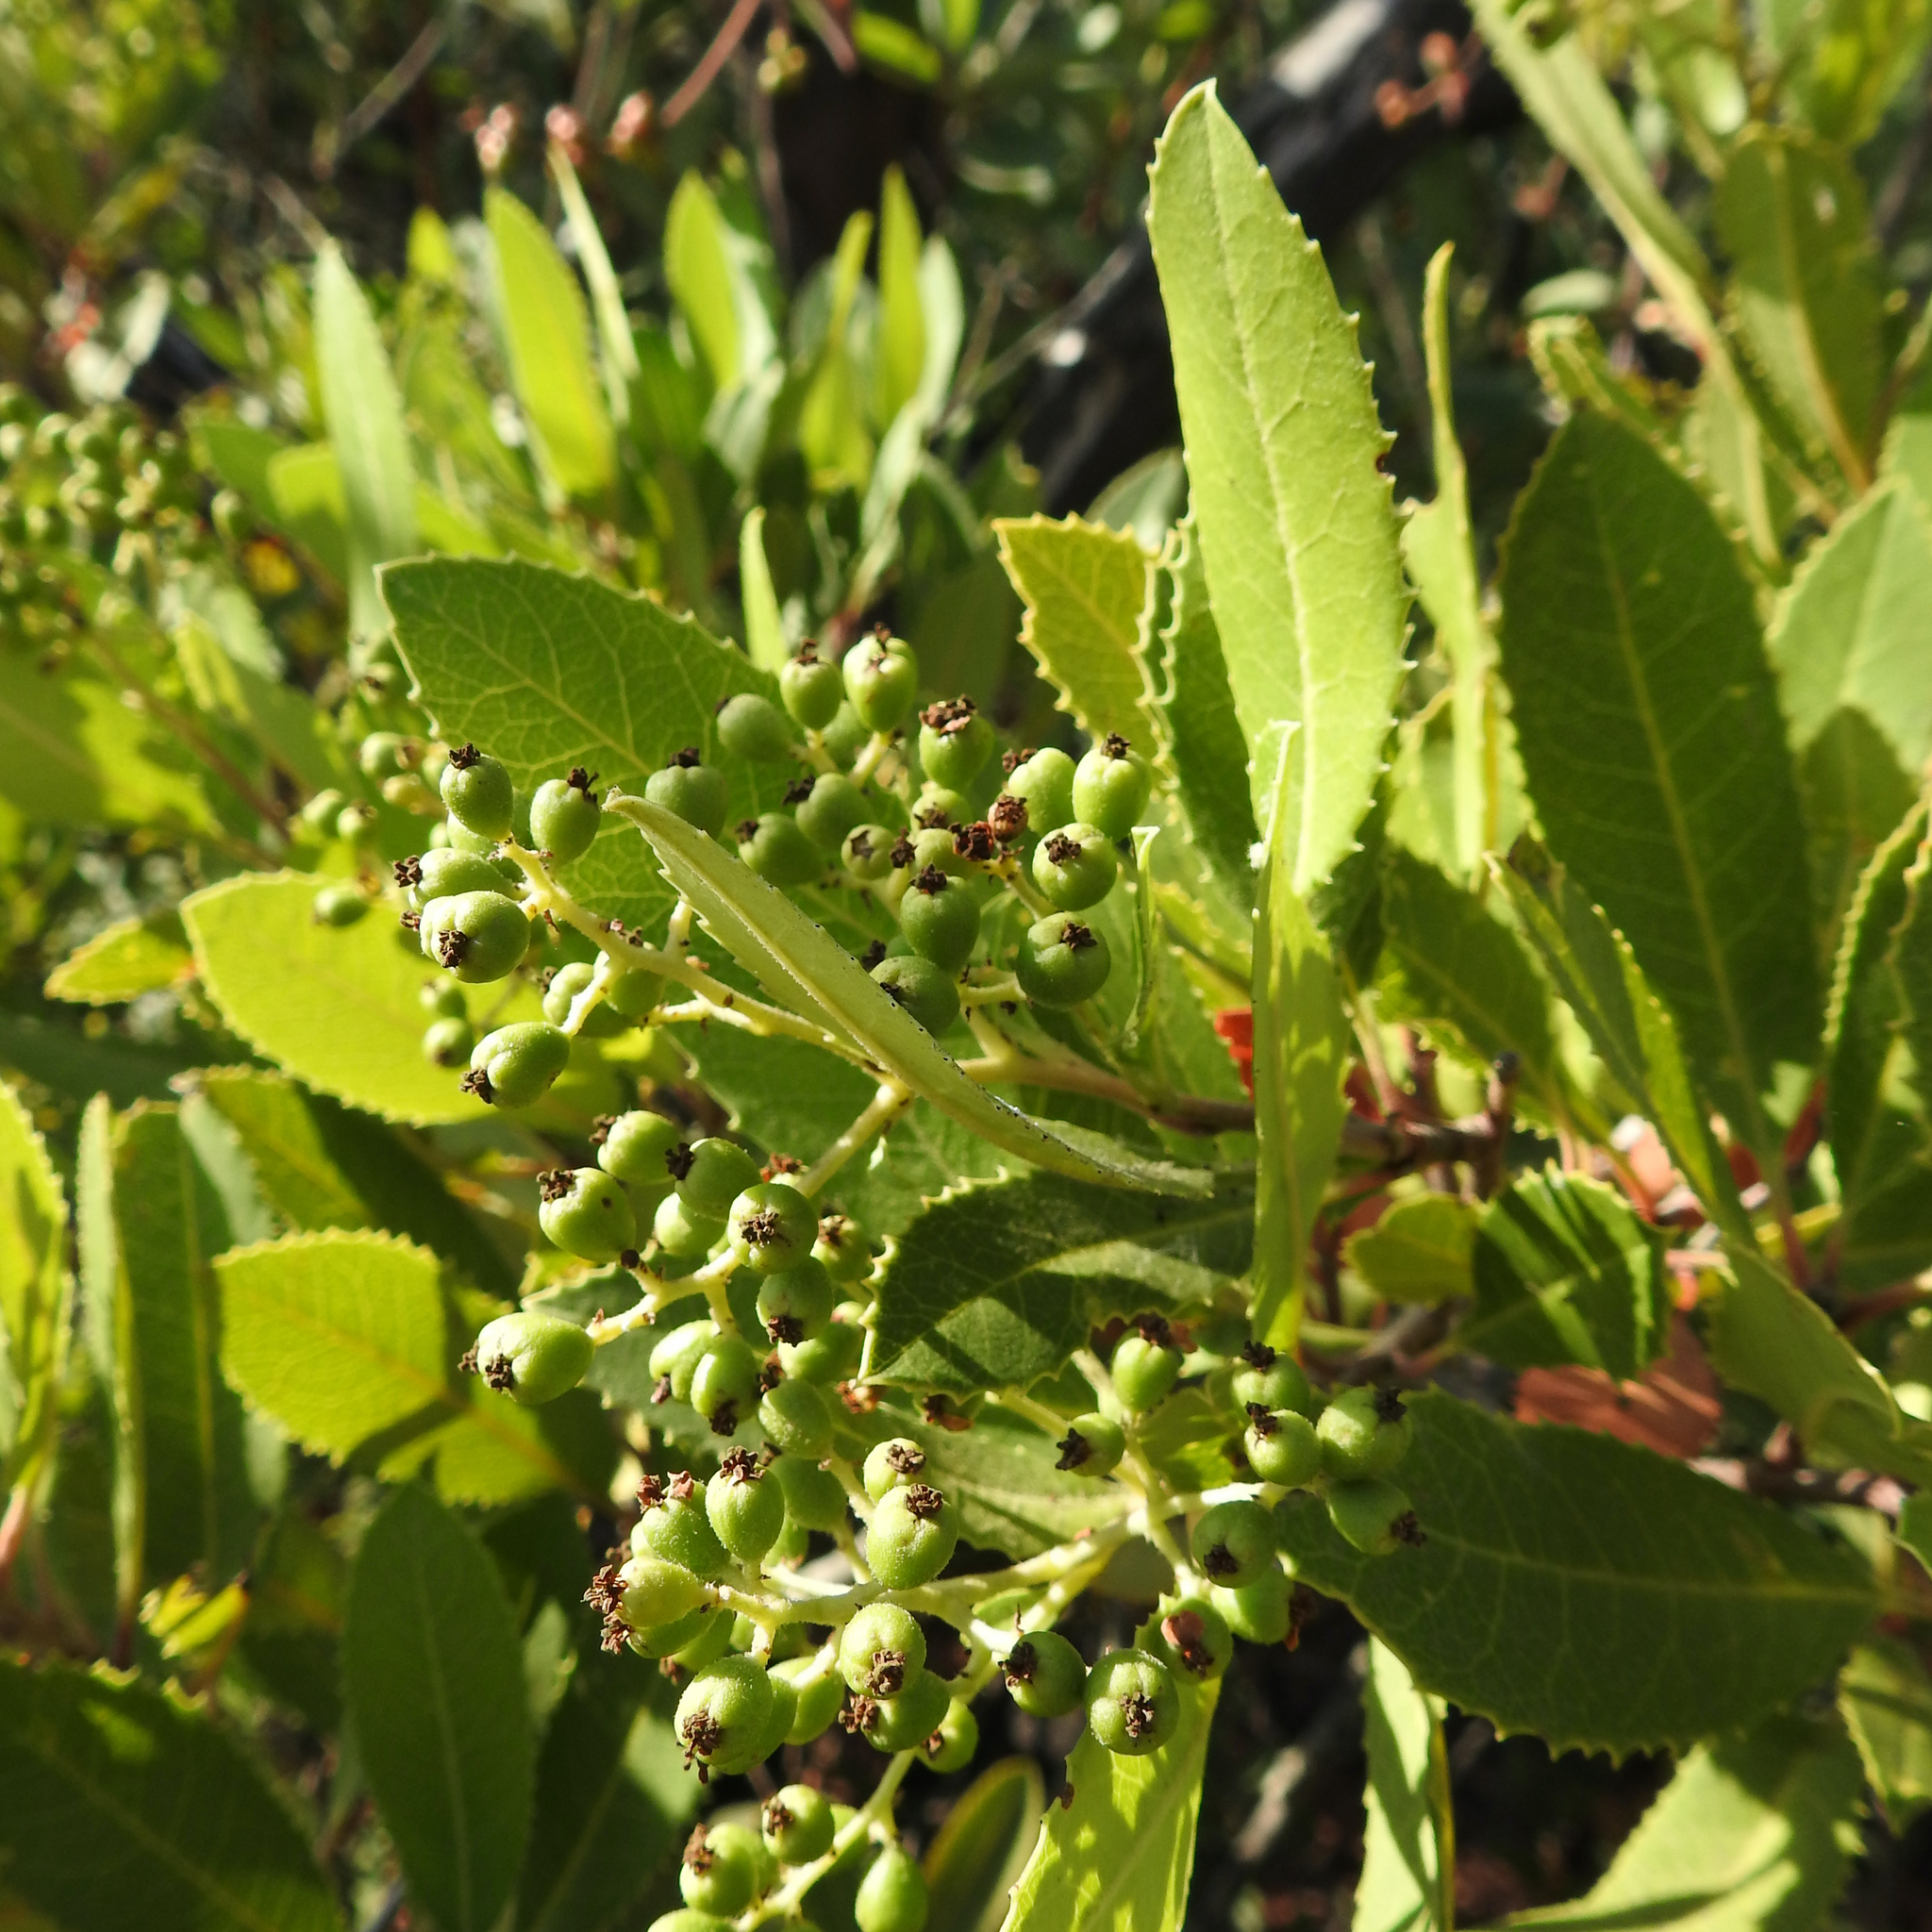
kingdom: Plantae
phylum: Tracheophyta
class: Magnoliopsida
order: Rosales
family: Rosaceae
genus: Heteromeles
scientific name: Heteromeles arbutifolia
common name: California-holly
